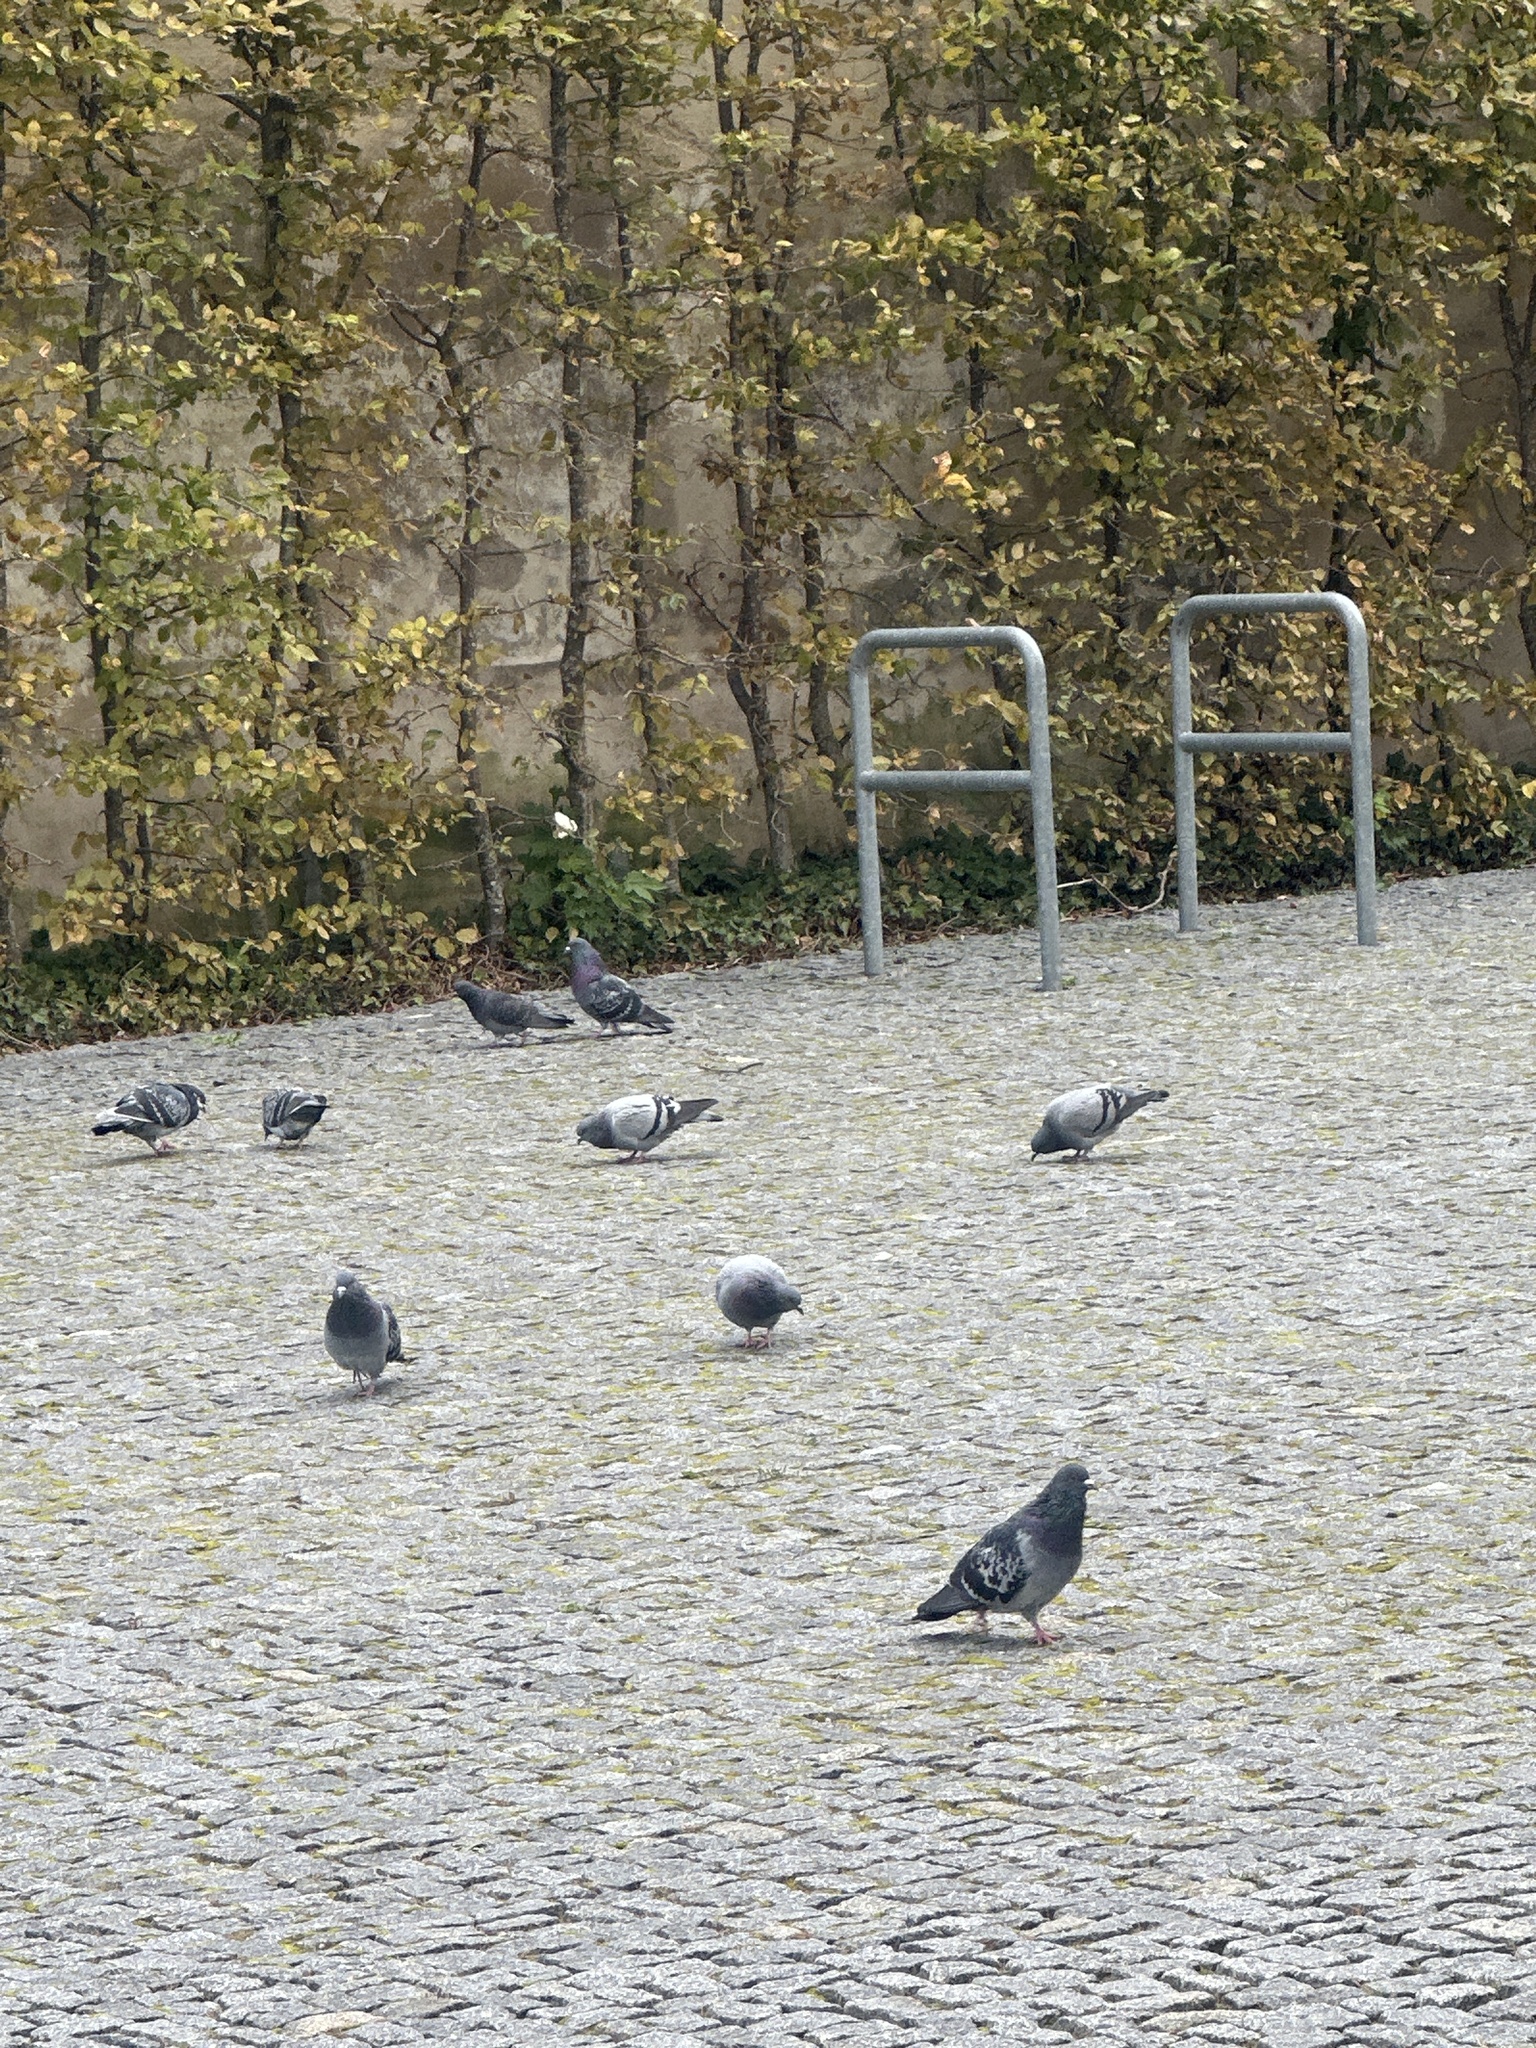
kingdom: Animalia
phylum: Chordata
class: Aves
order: Columbiformes
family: Columbidae
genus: Columba
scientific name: Columba livia
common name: Rock pigeon
